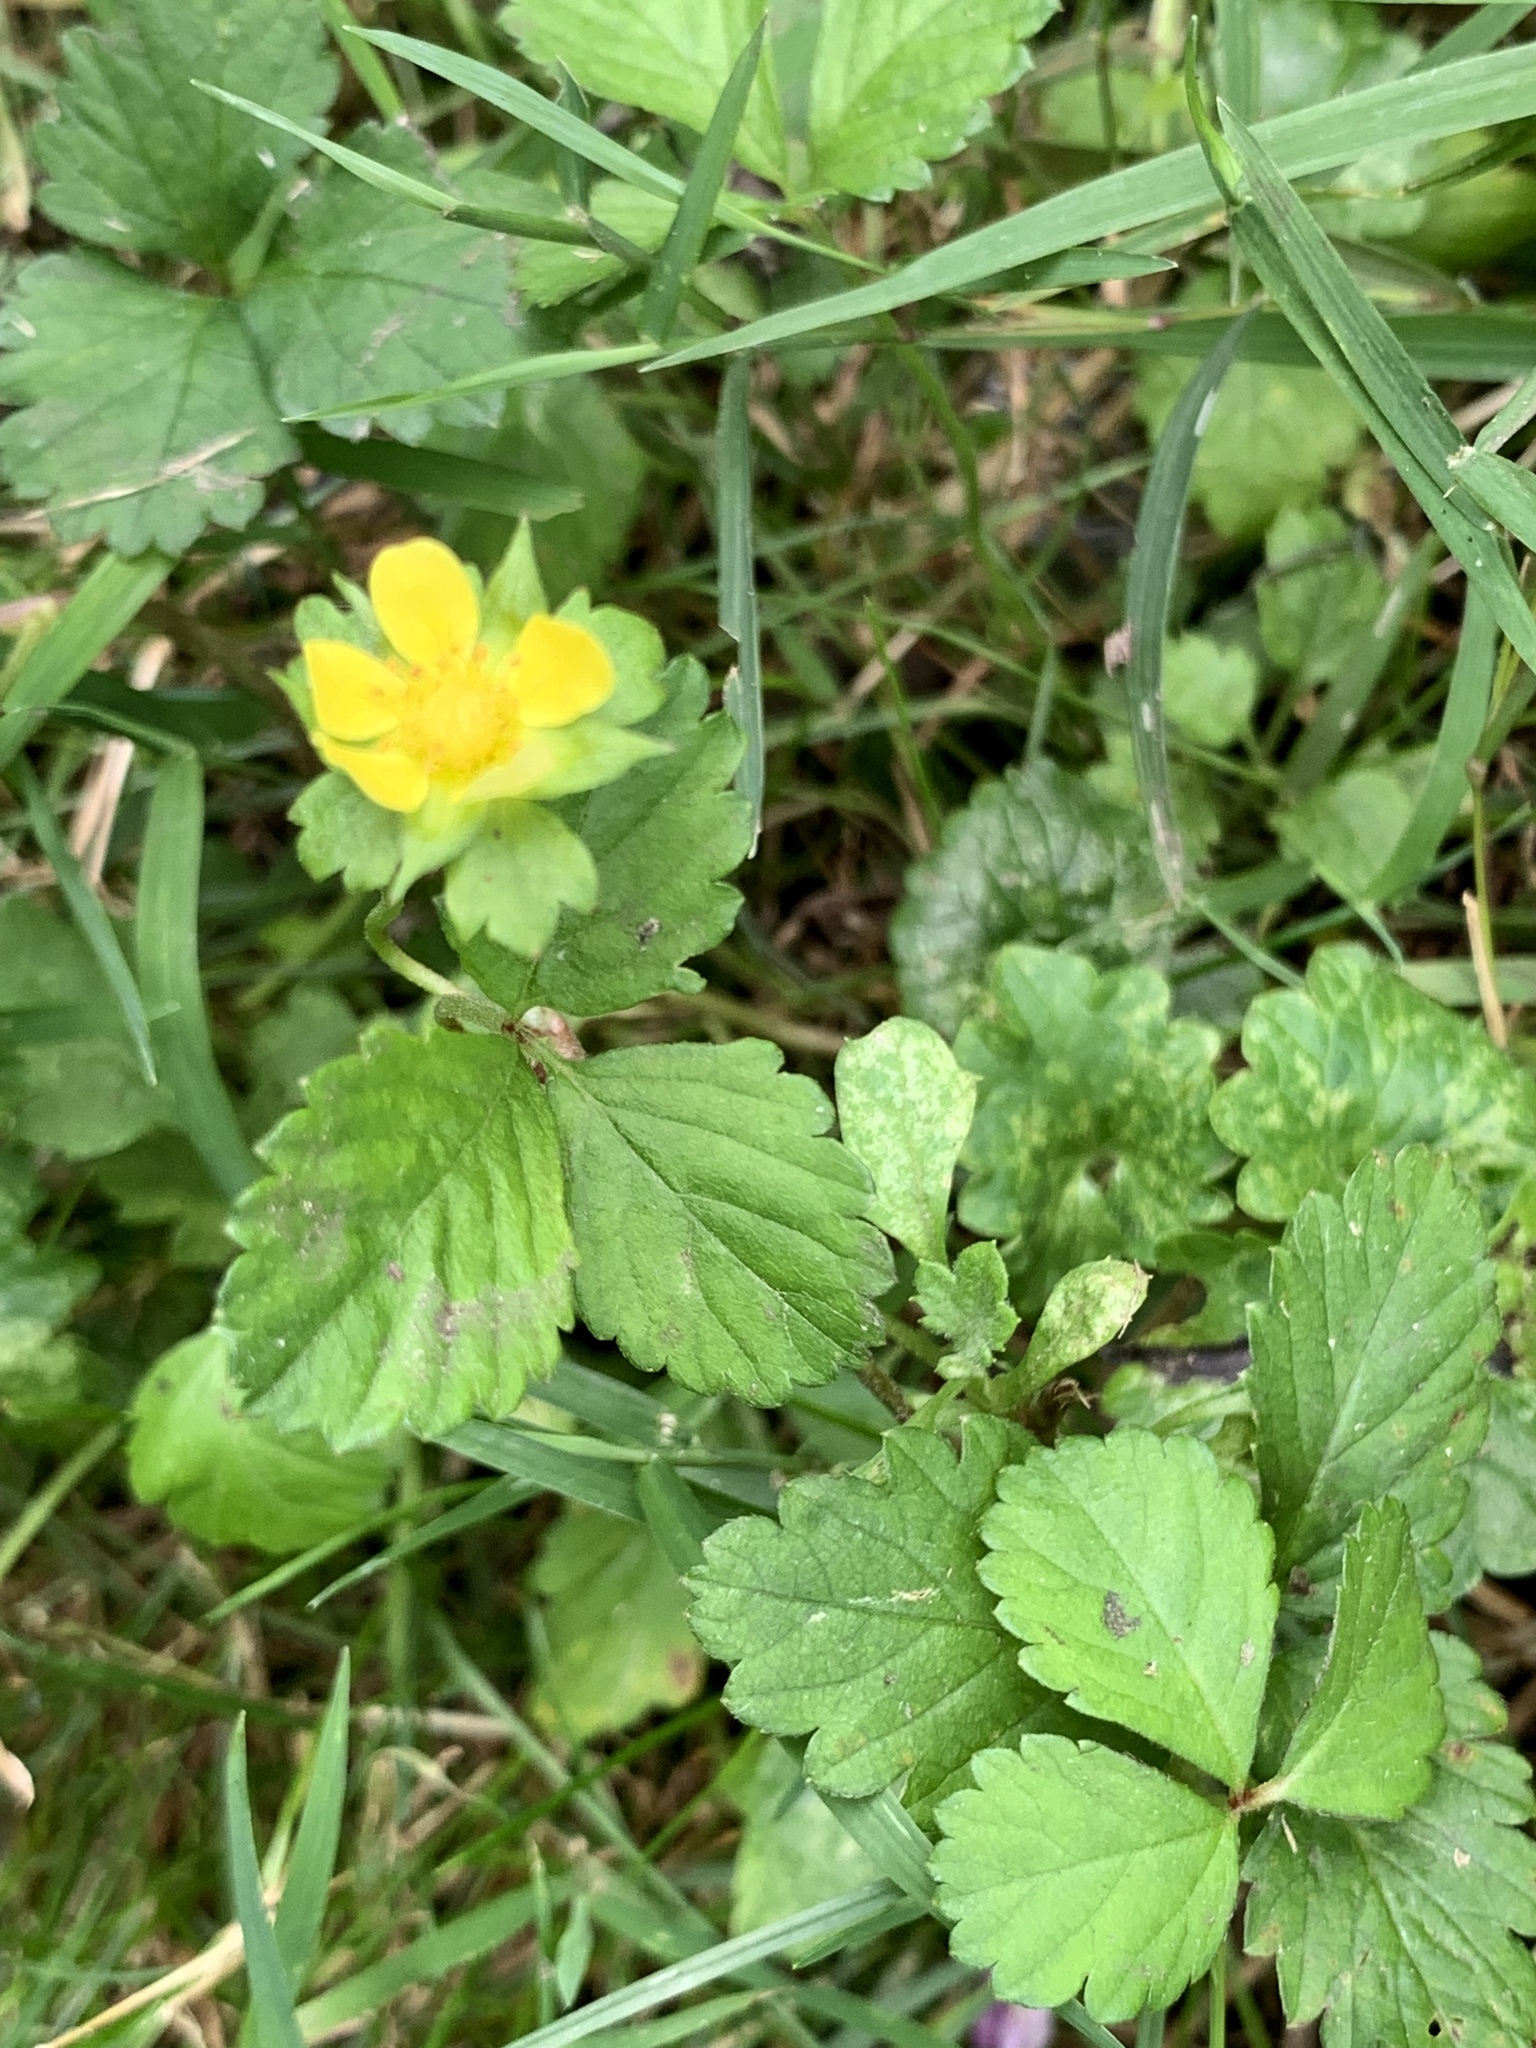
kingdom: Plantae
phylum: Tracheophyta
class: Magnoliopsida
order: Rosales
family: Rosaceae
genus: Potentilla
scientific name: Potentilla indica
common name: Yellow-flowered strawberry
